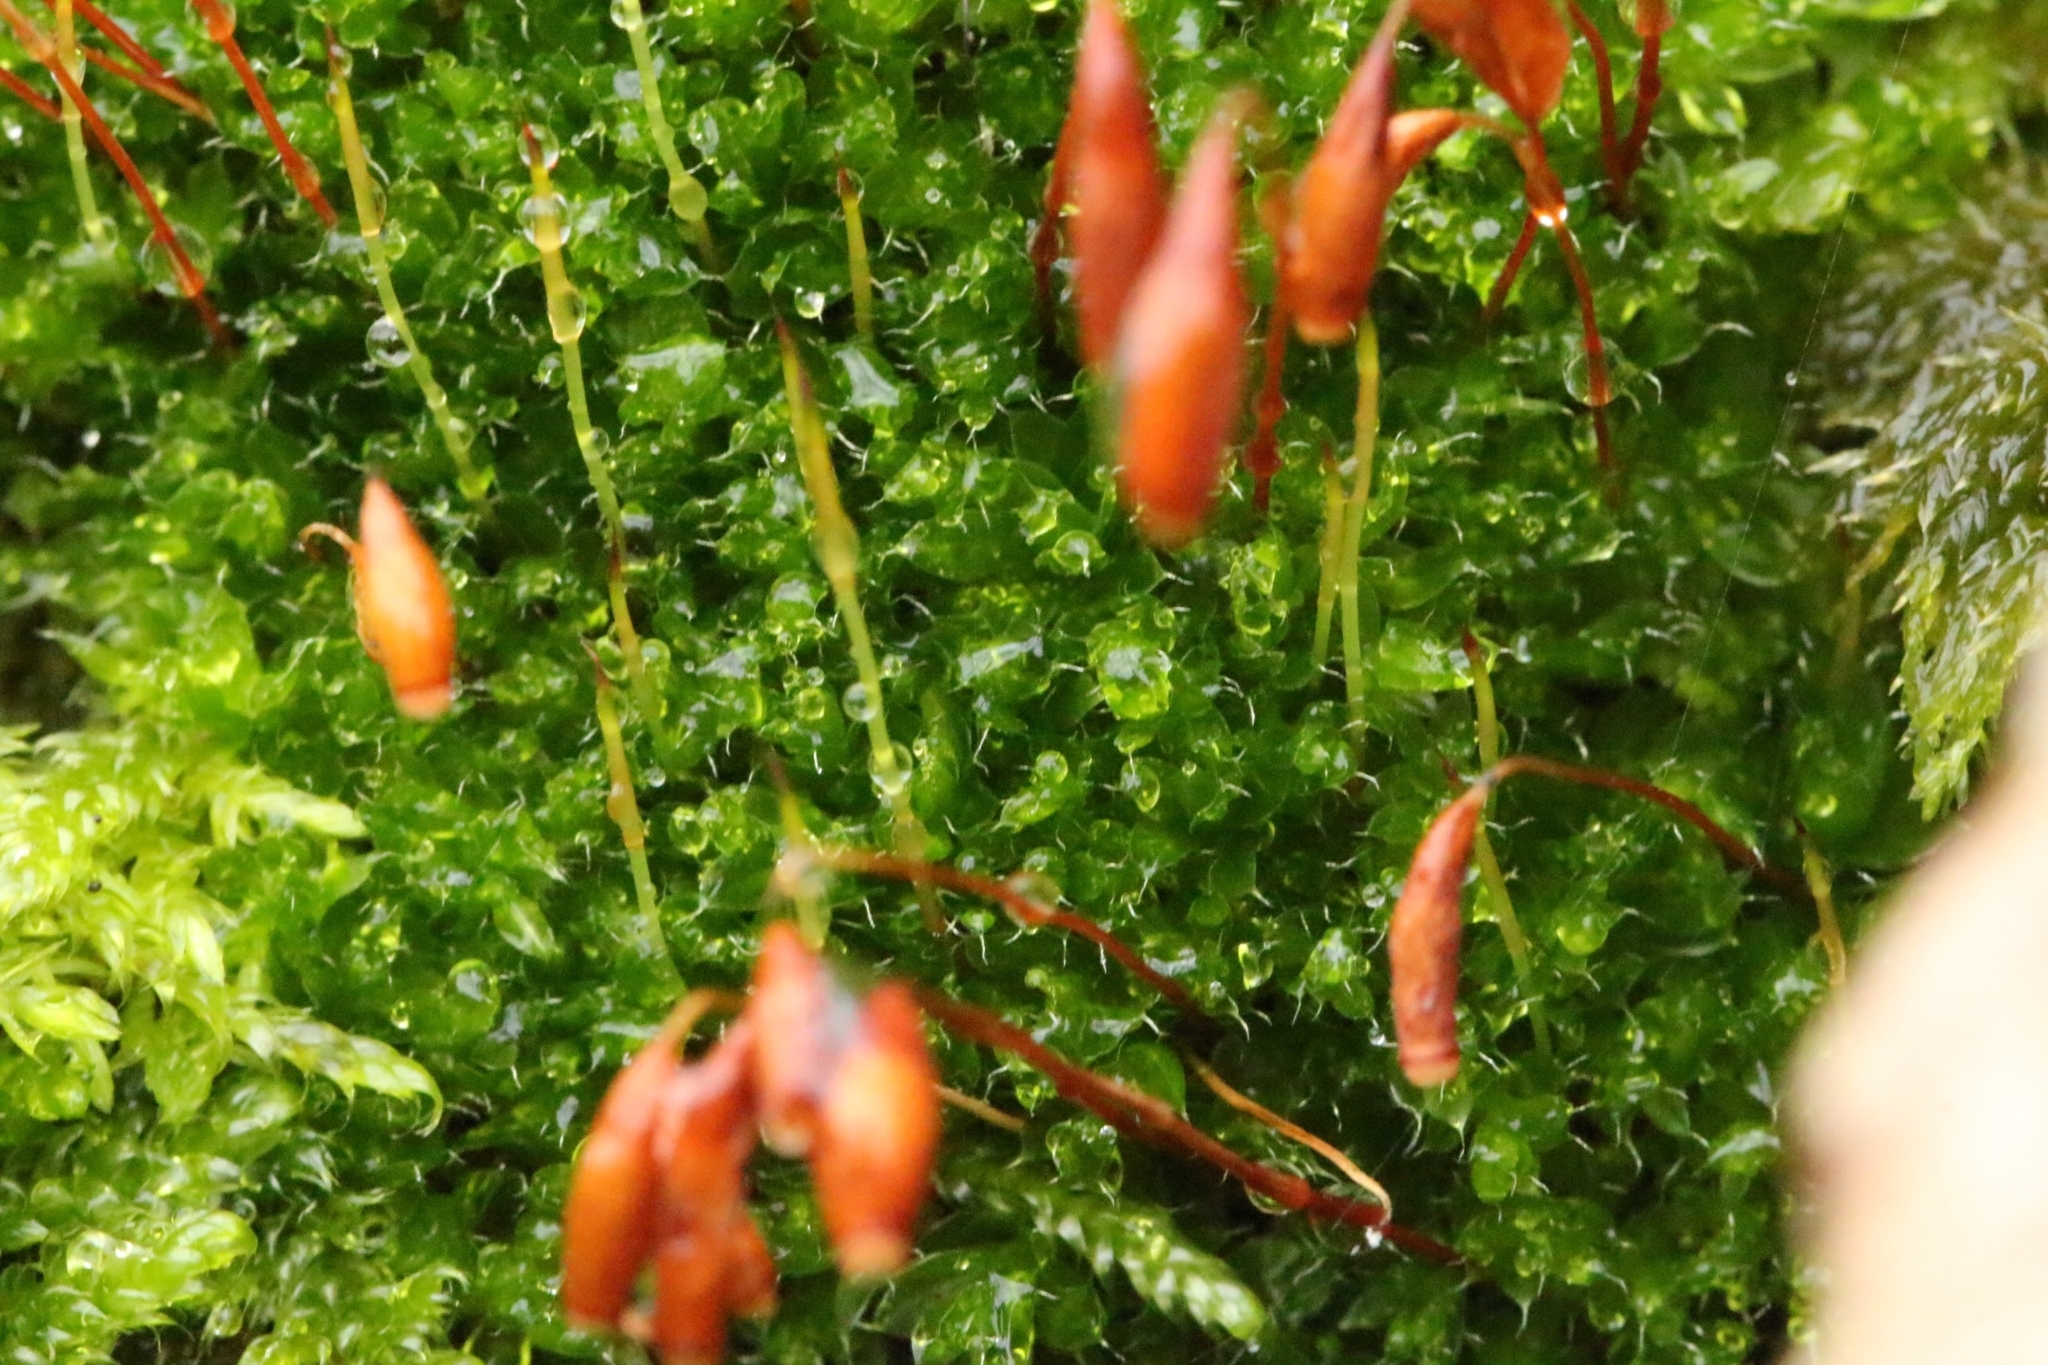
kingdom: Plantae
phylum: Bryophyta
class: Bryopsida
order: Bryales
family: Bryaceae
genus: Rosulabryum
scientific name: Rosulabryum capillare
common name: Capillary thread-moss
